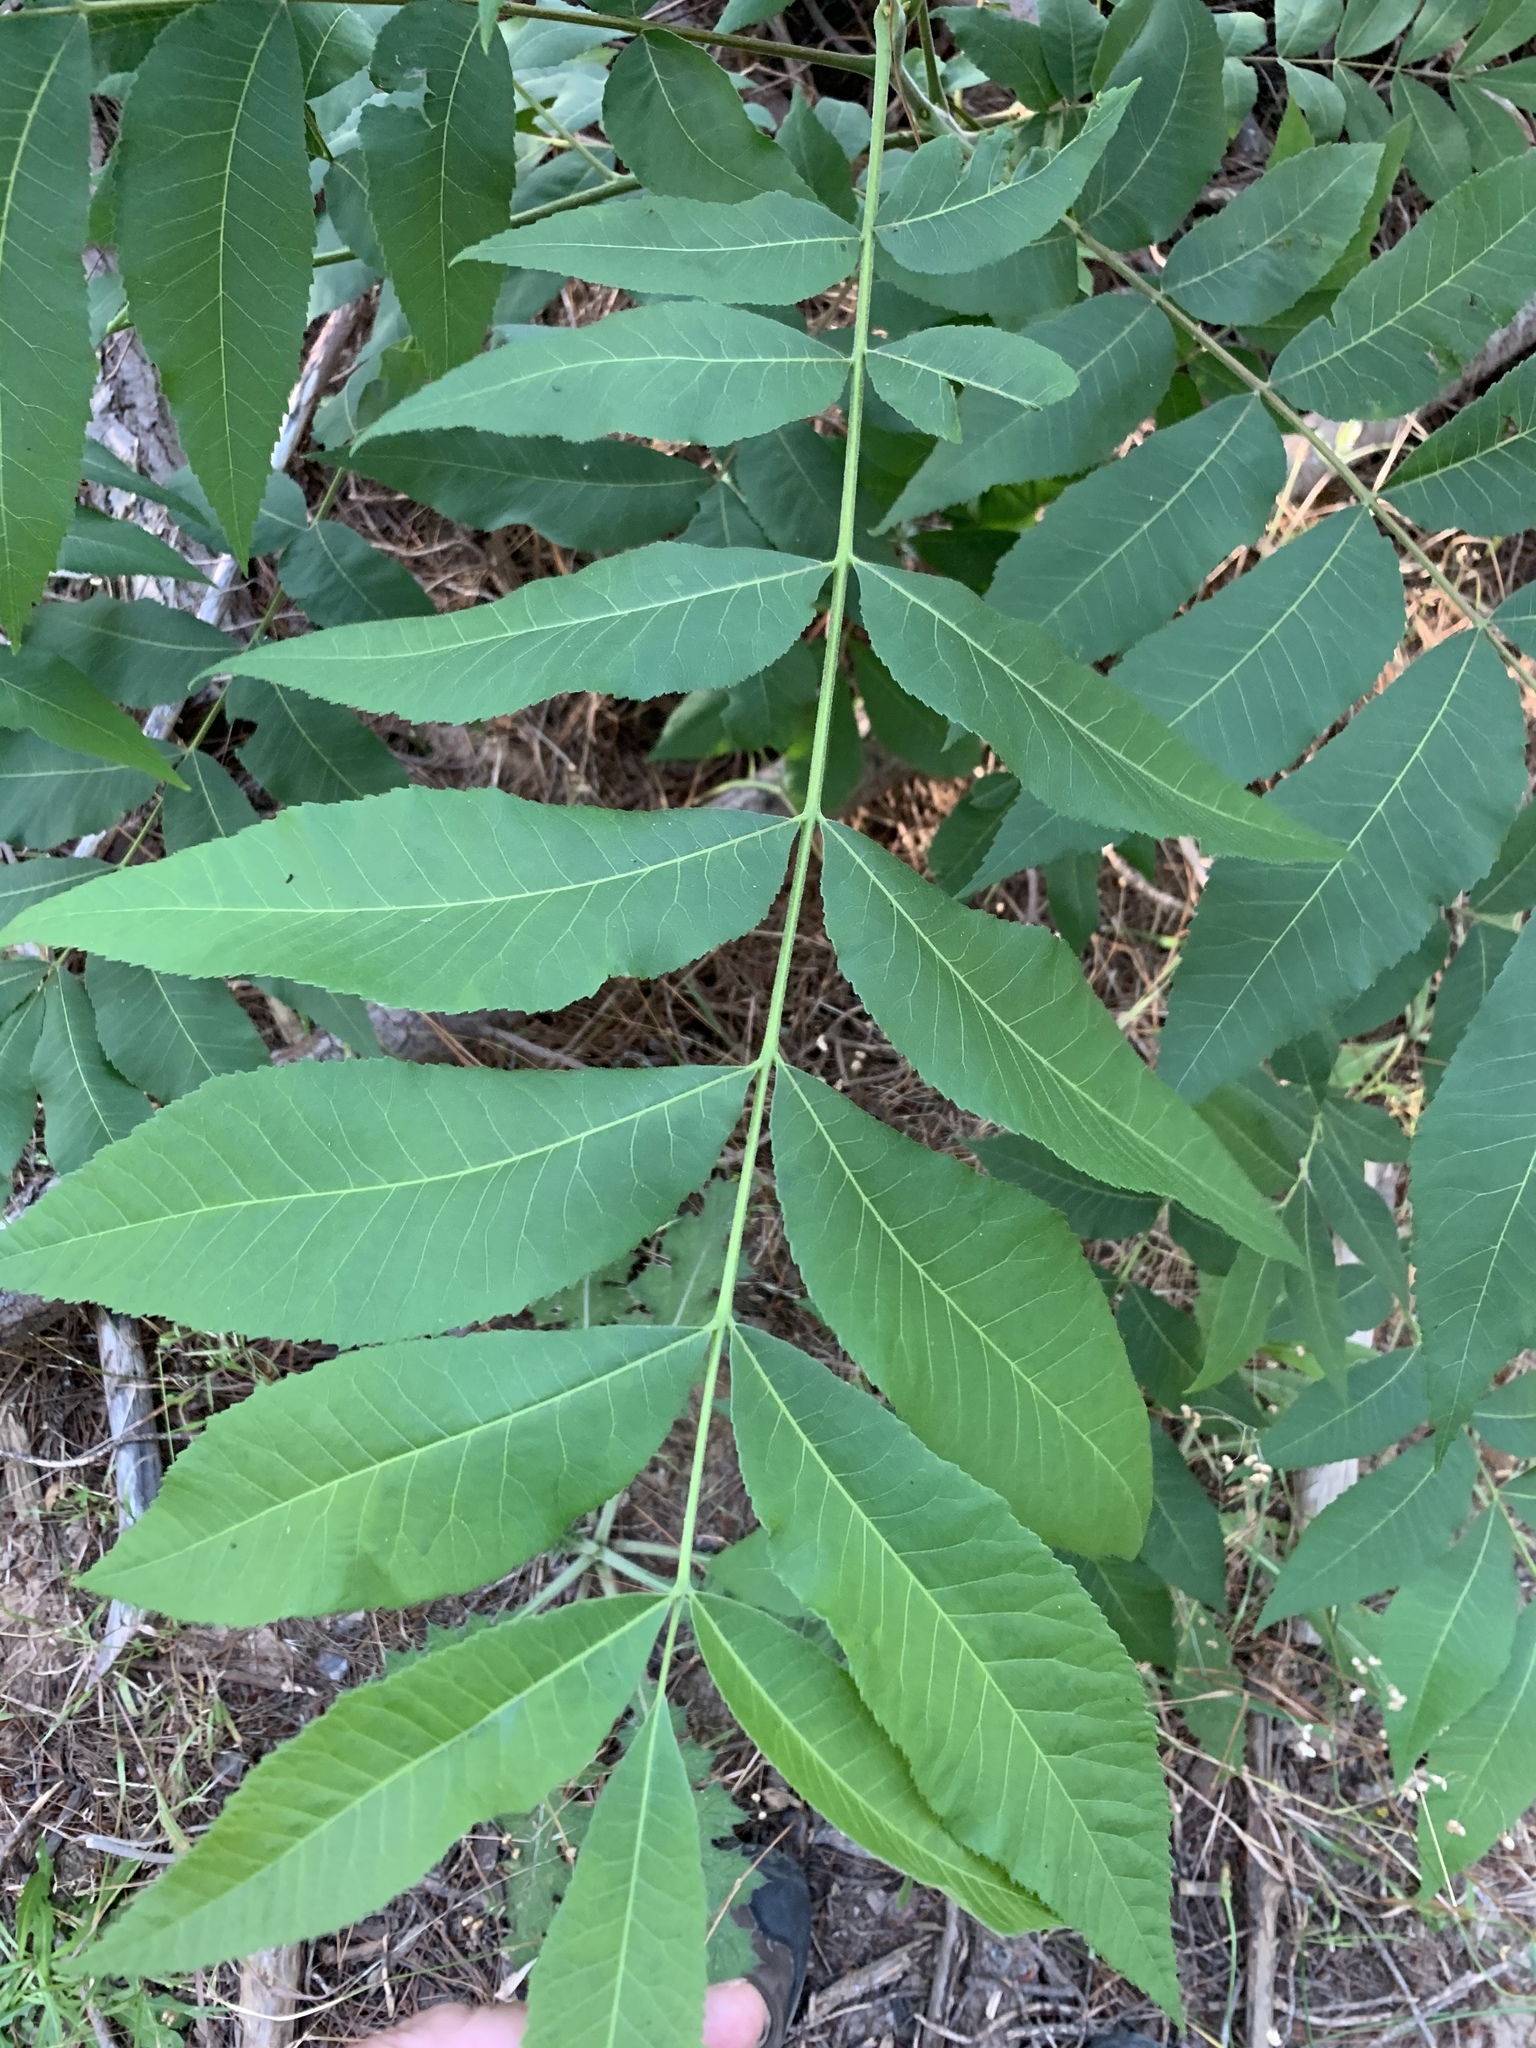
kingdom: Plantae
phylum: Tracheophyta
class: Magnoliopsida
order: Fagales
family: Juglandaceae
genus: Carya
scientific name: Carya illinoinensis
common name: Pecan
